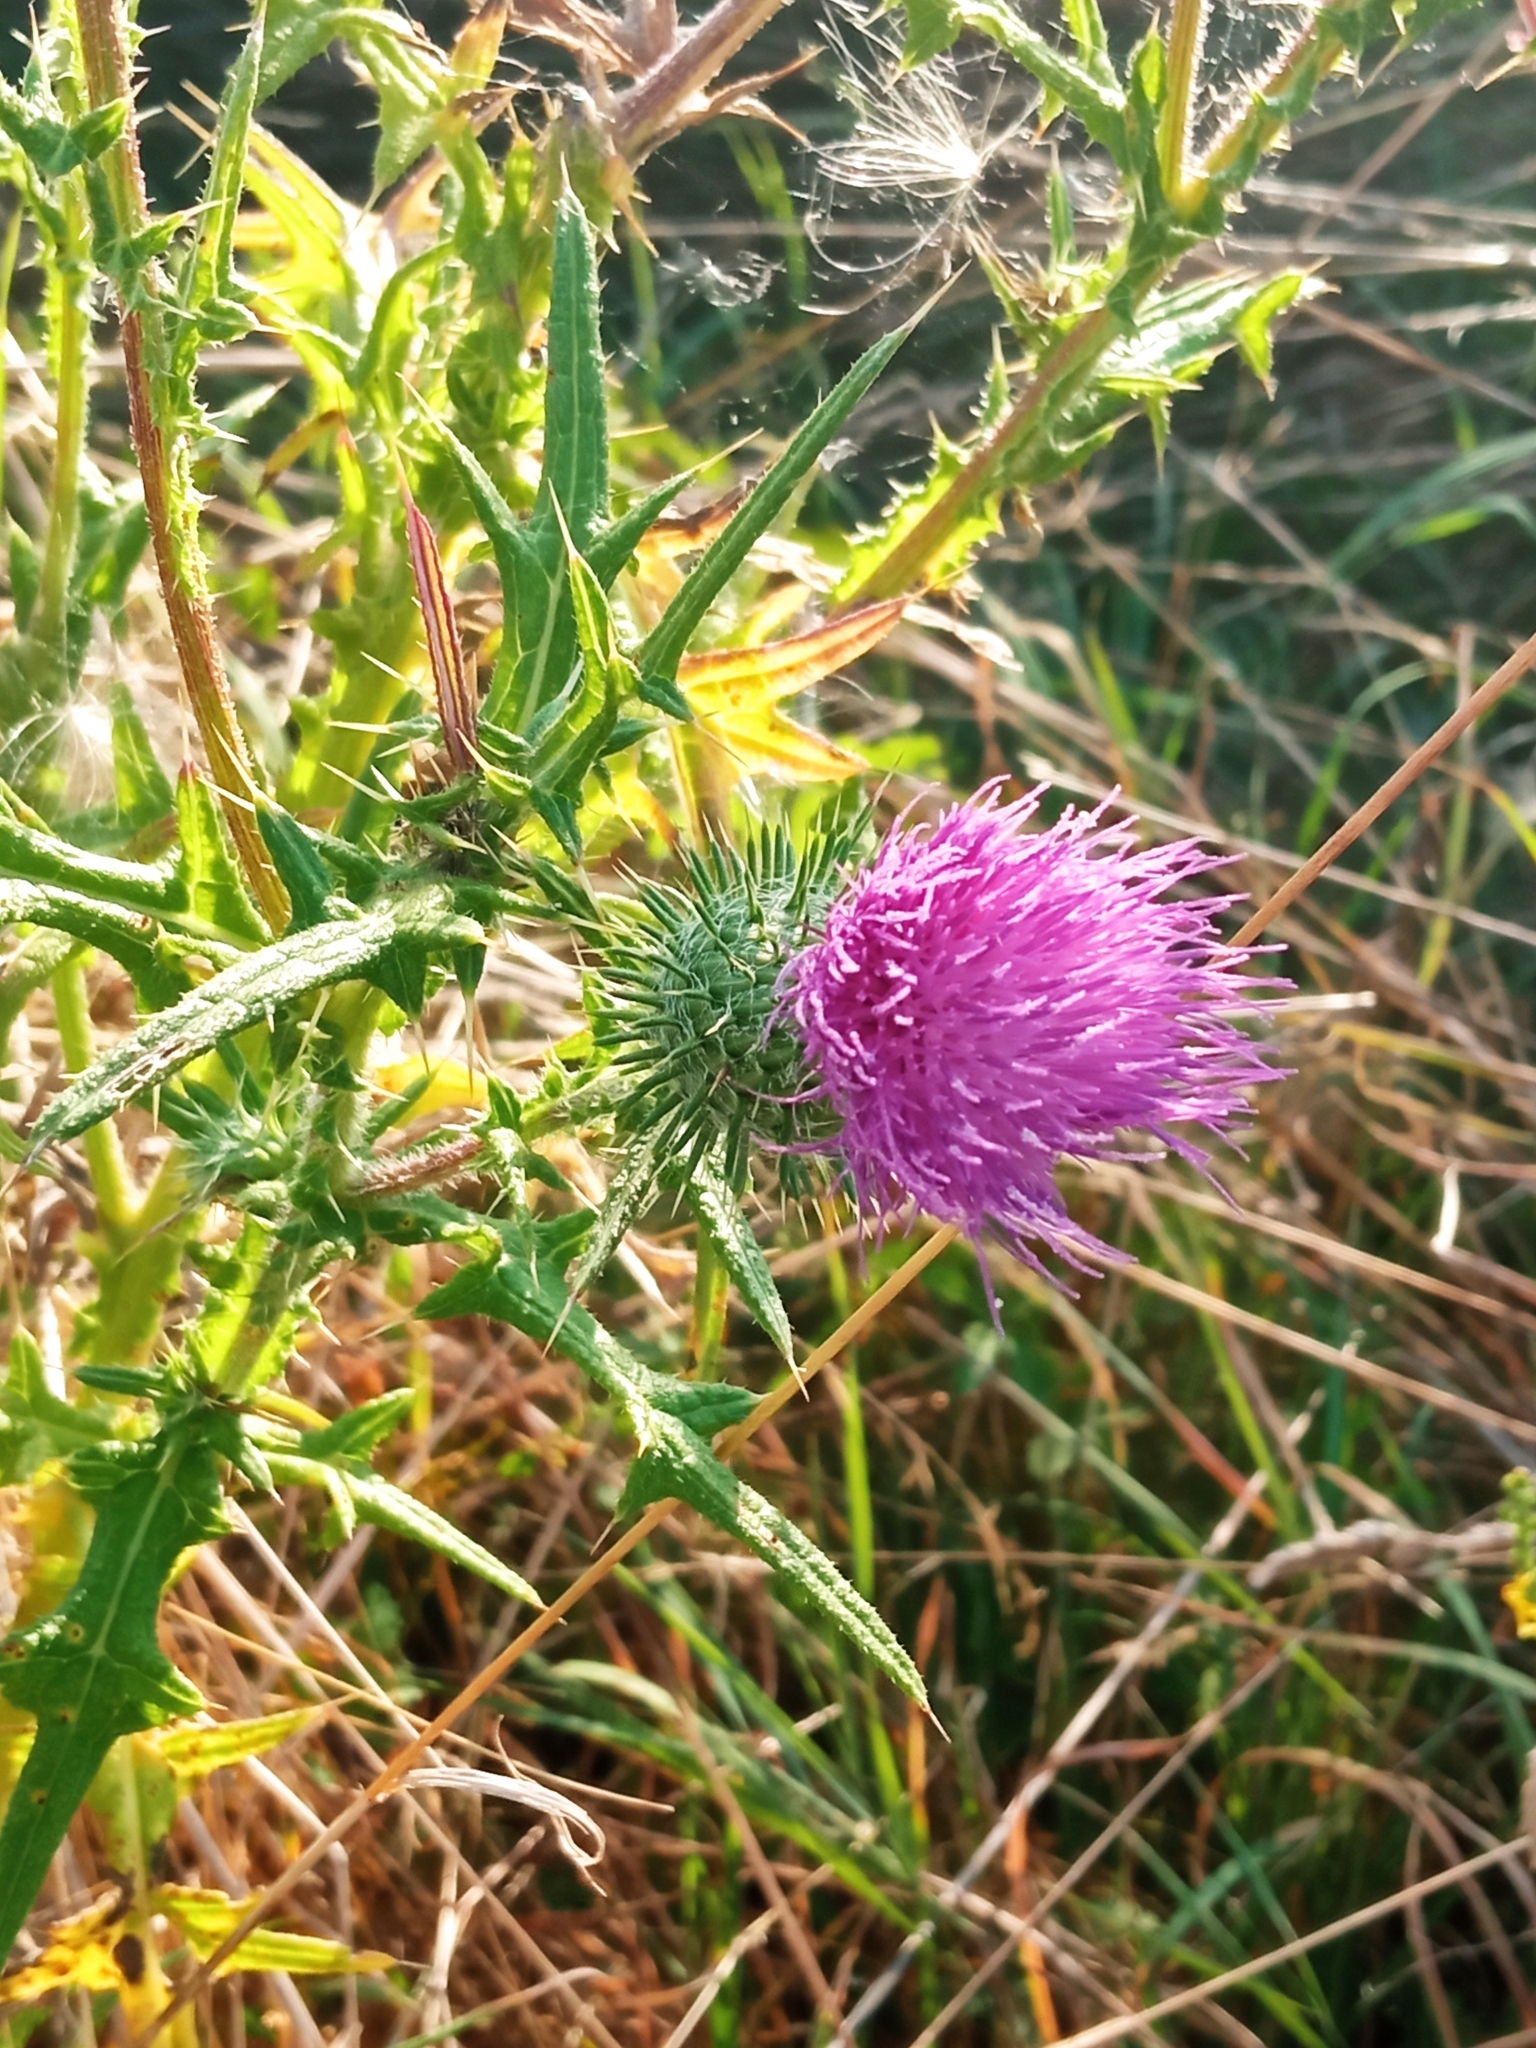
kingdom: Plantae
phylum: Tracheophyta
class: Magnoliopsida
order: Asterales
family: Asteraceae
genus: Cirsium
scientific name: Cirsium vulgare
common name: Bull thistle
